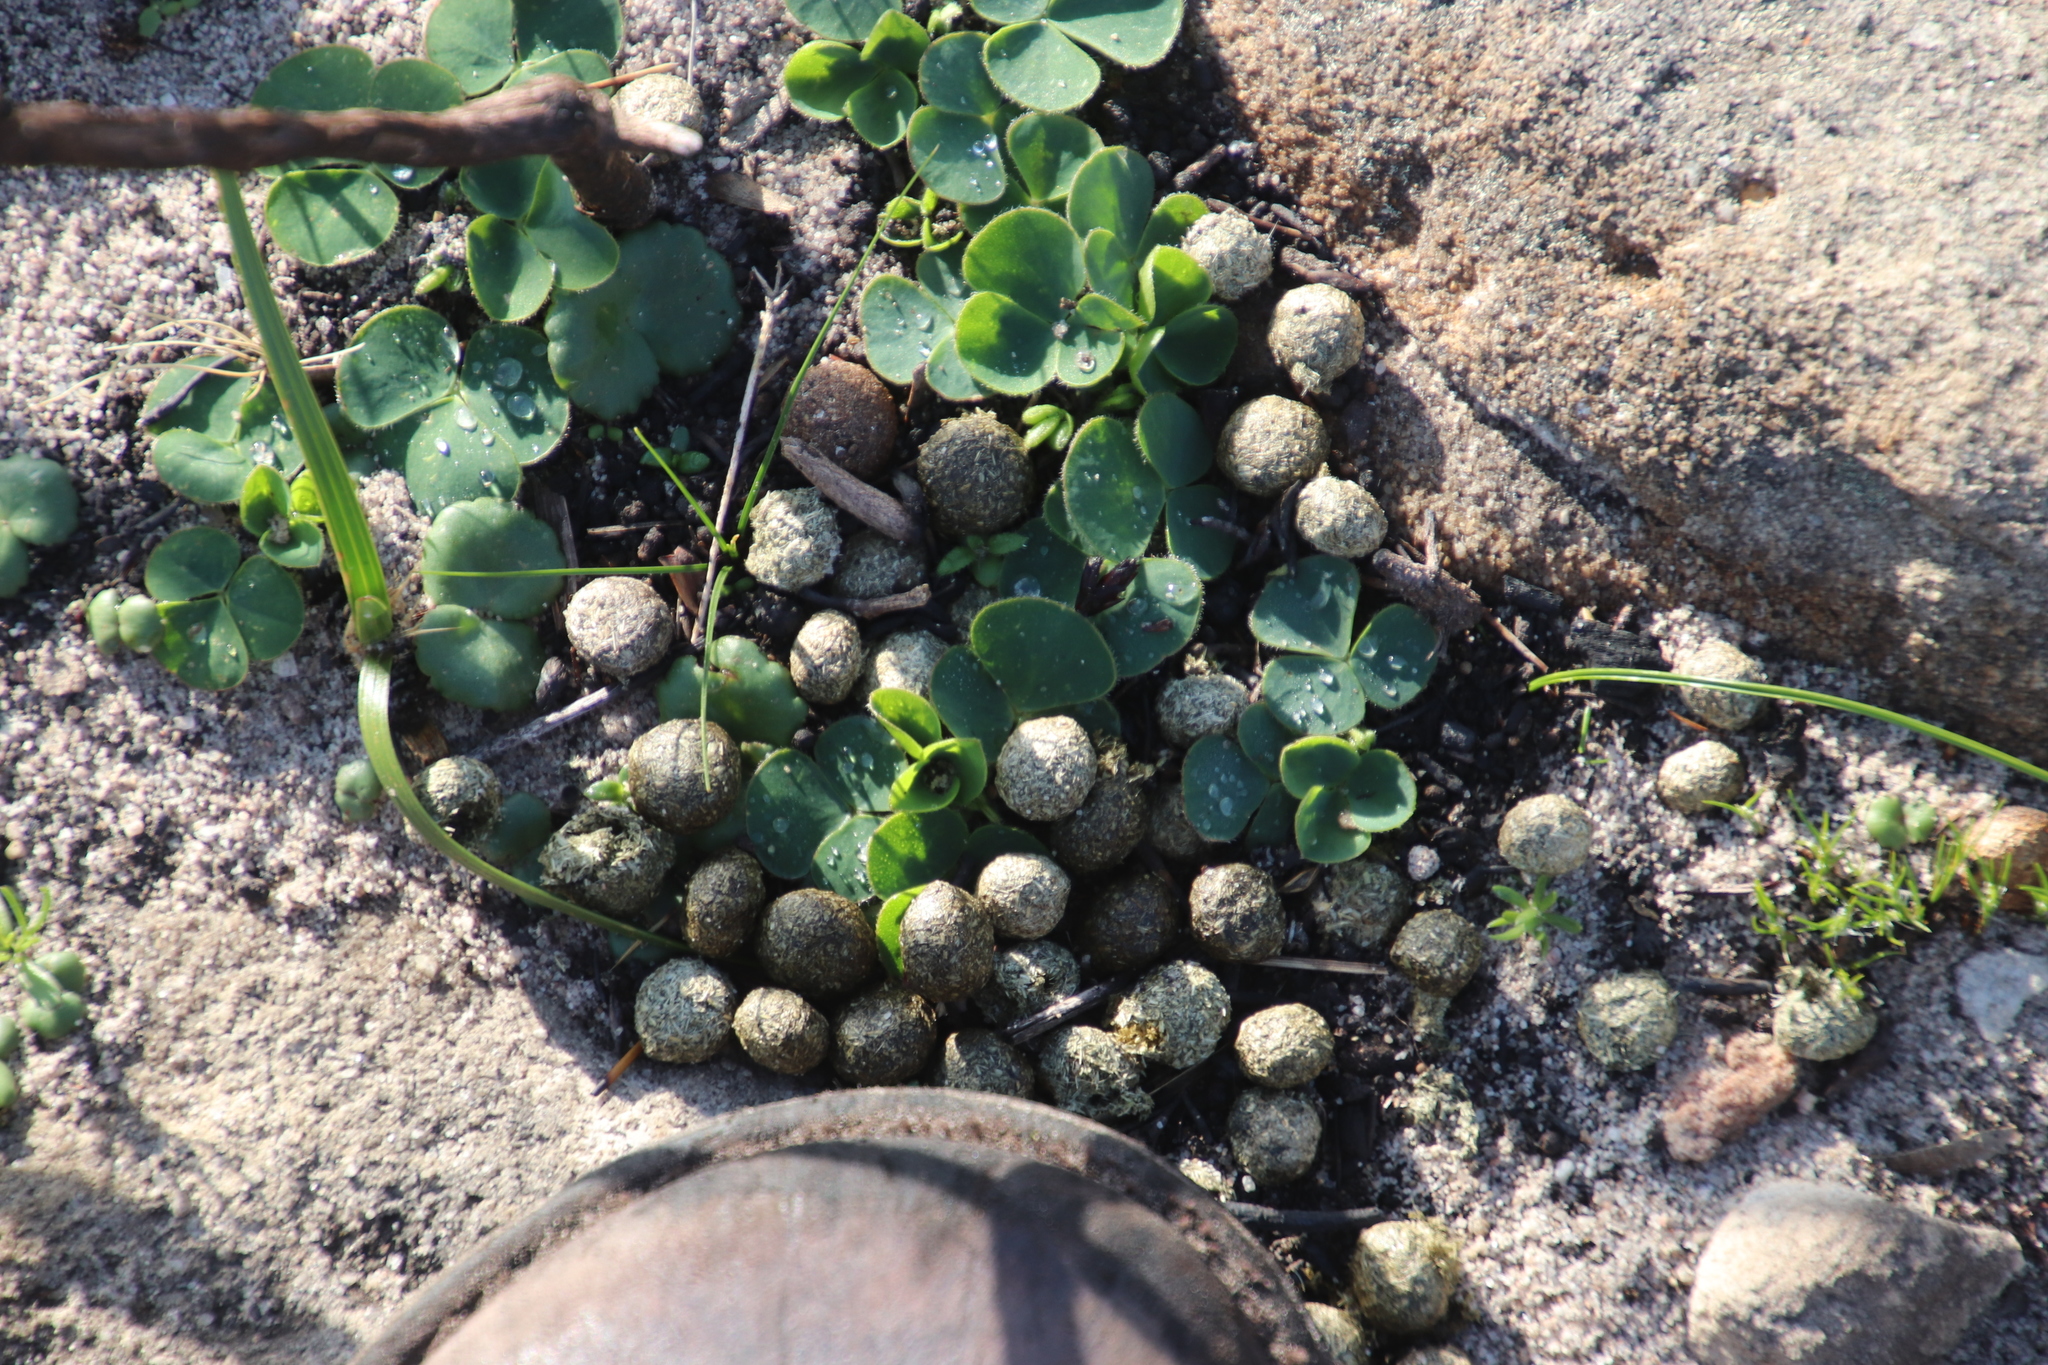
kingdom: Animalia
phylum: Chordata
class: Mammalia
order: Lagomorpha
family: Leporidae
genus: Pronolagus
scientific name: Pronolagus saundersiae
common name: Hewitt's red rock hare
